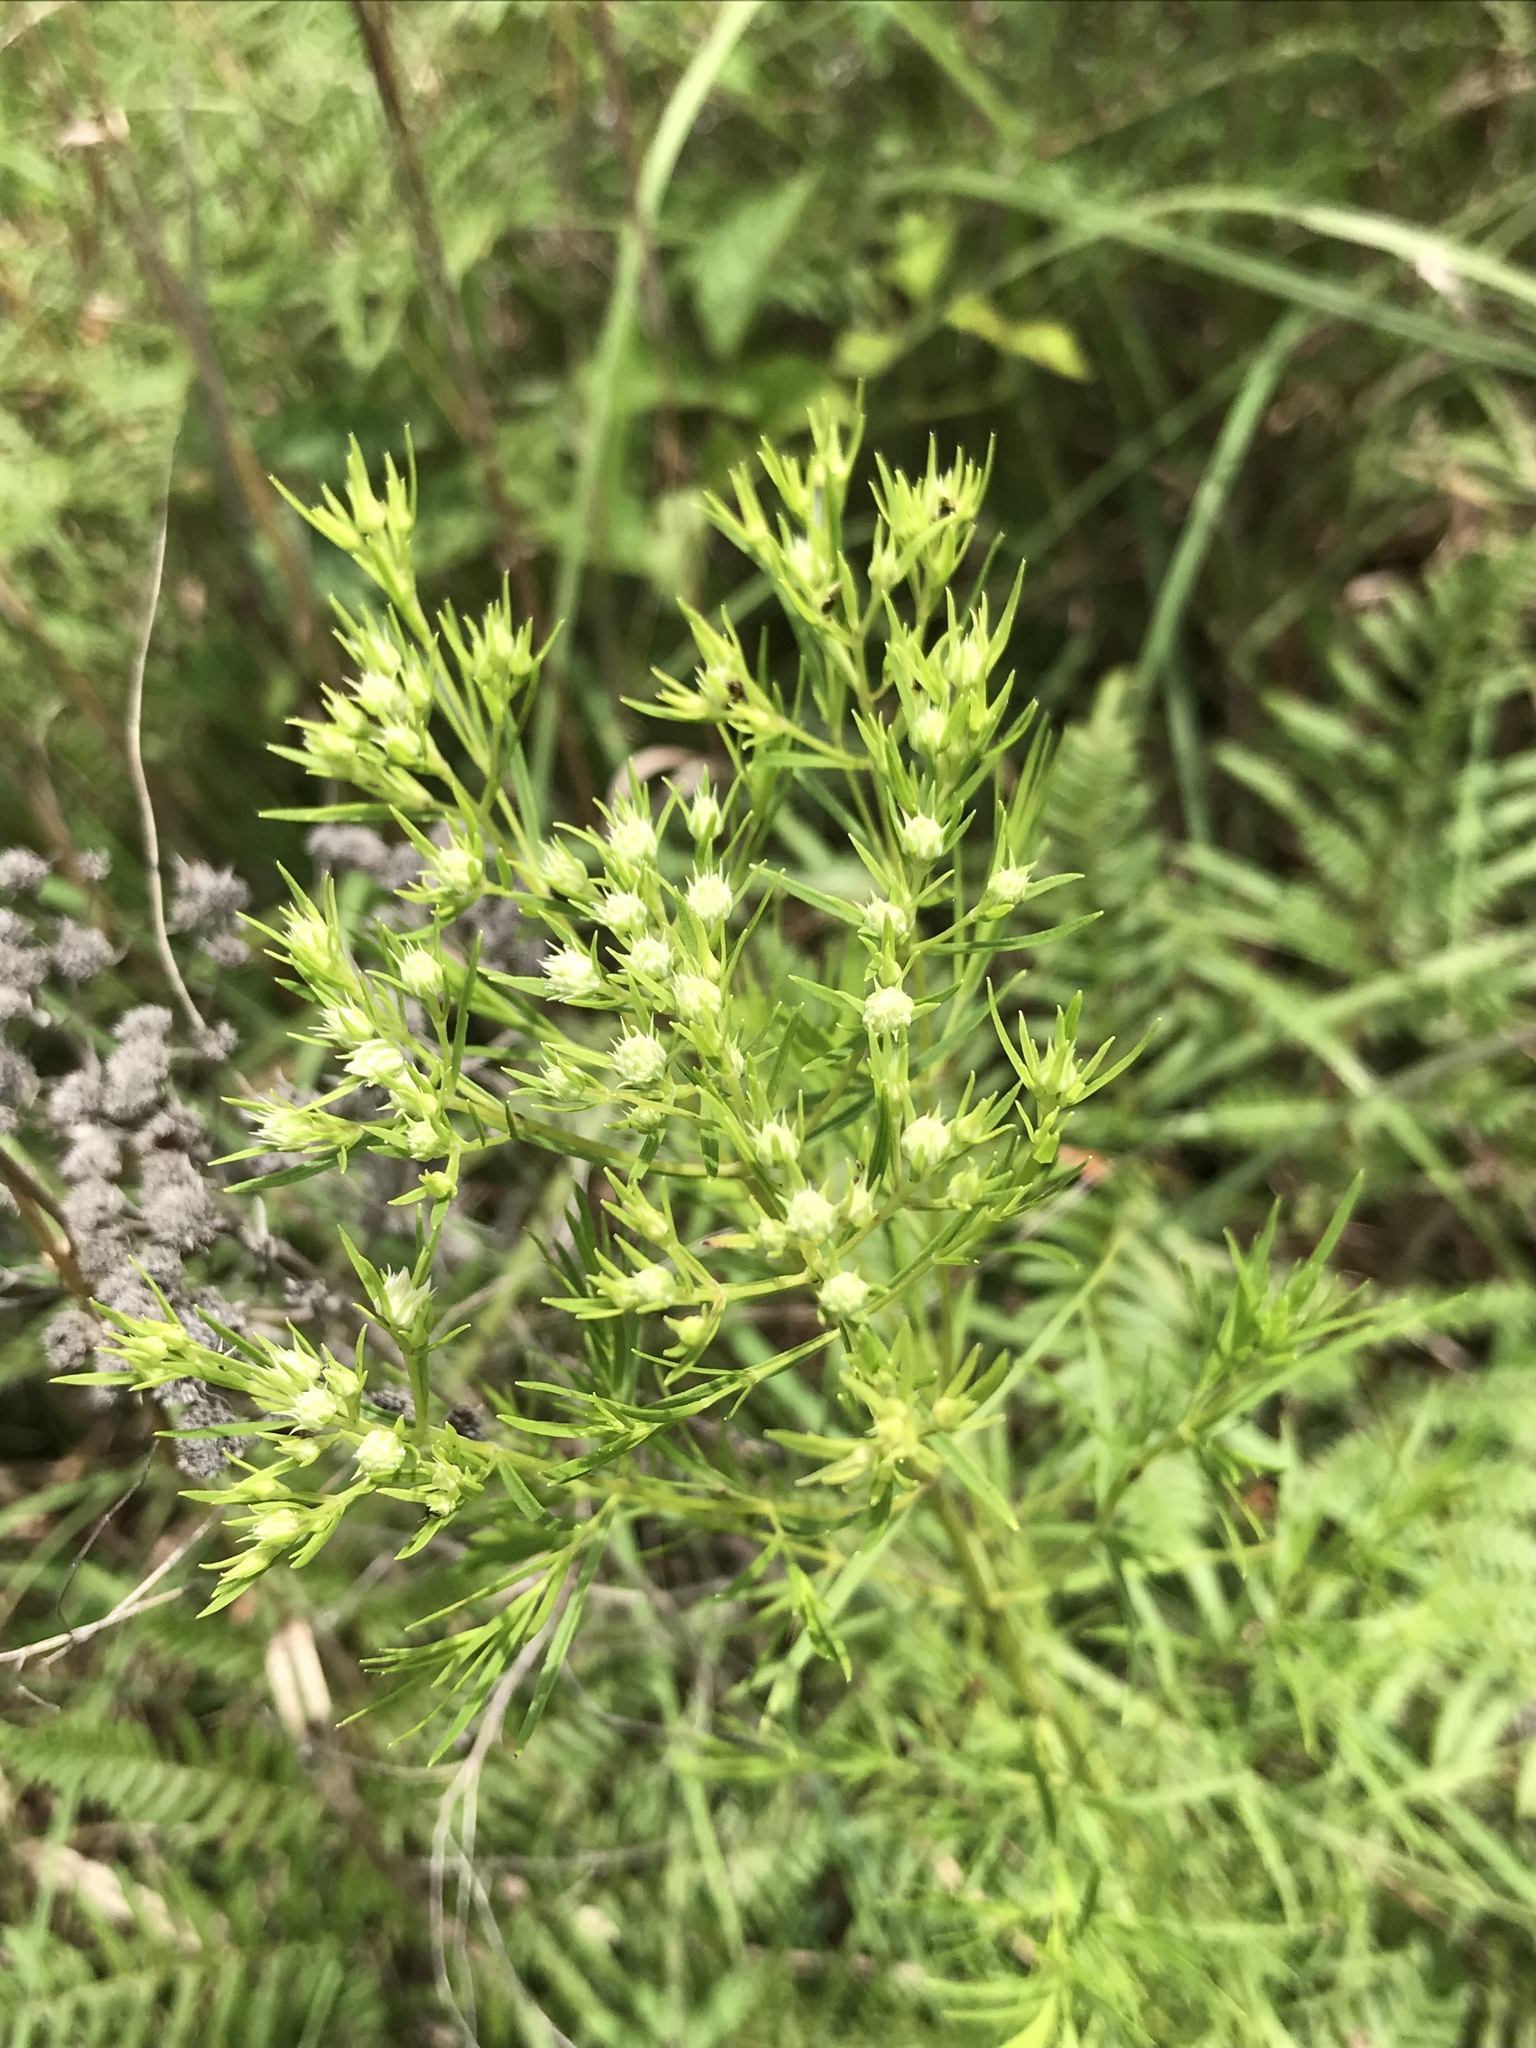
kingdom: Plantae
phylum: Tracheophyta
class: Magnoliopsida
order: Lamiales
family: Lamiaceae
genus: Pycnanthemum
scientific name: Pycnanthemum tenuifolium
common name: Narrow-leaf mountain-mint
